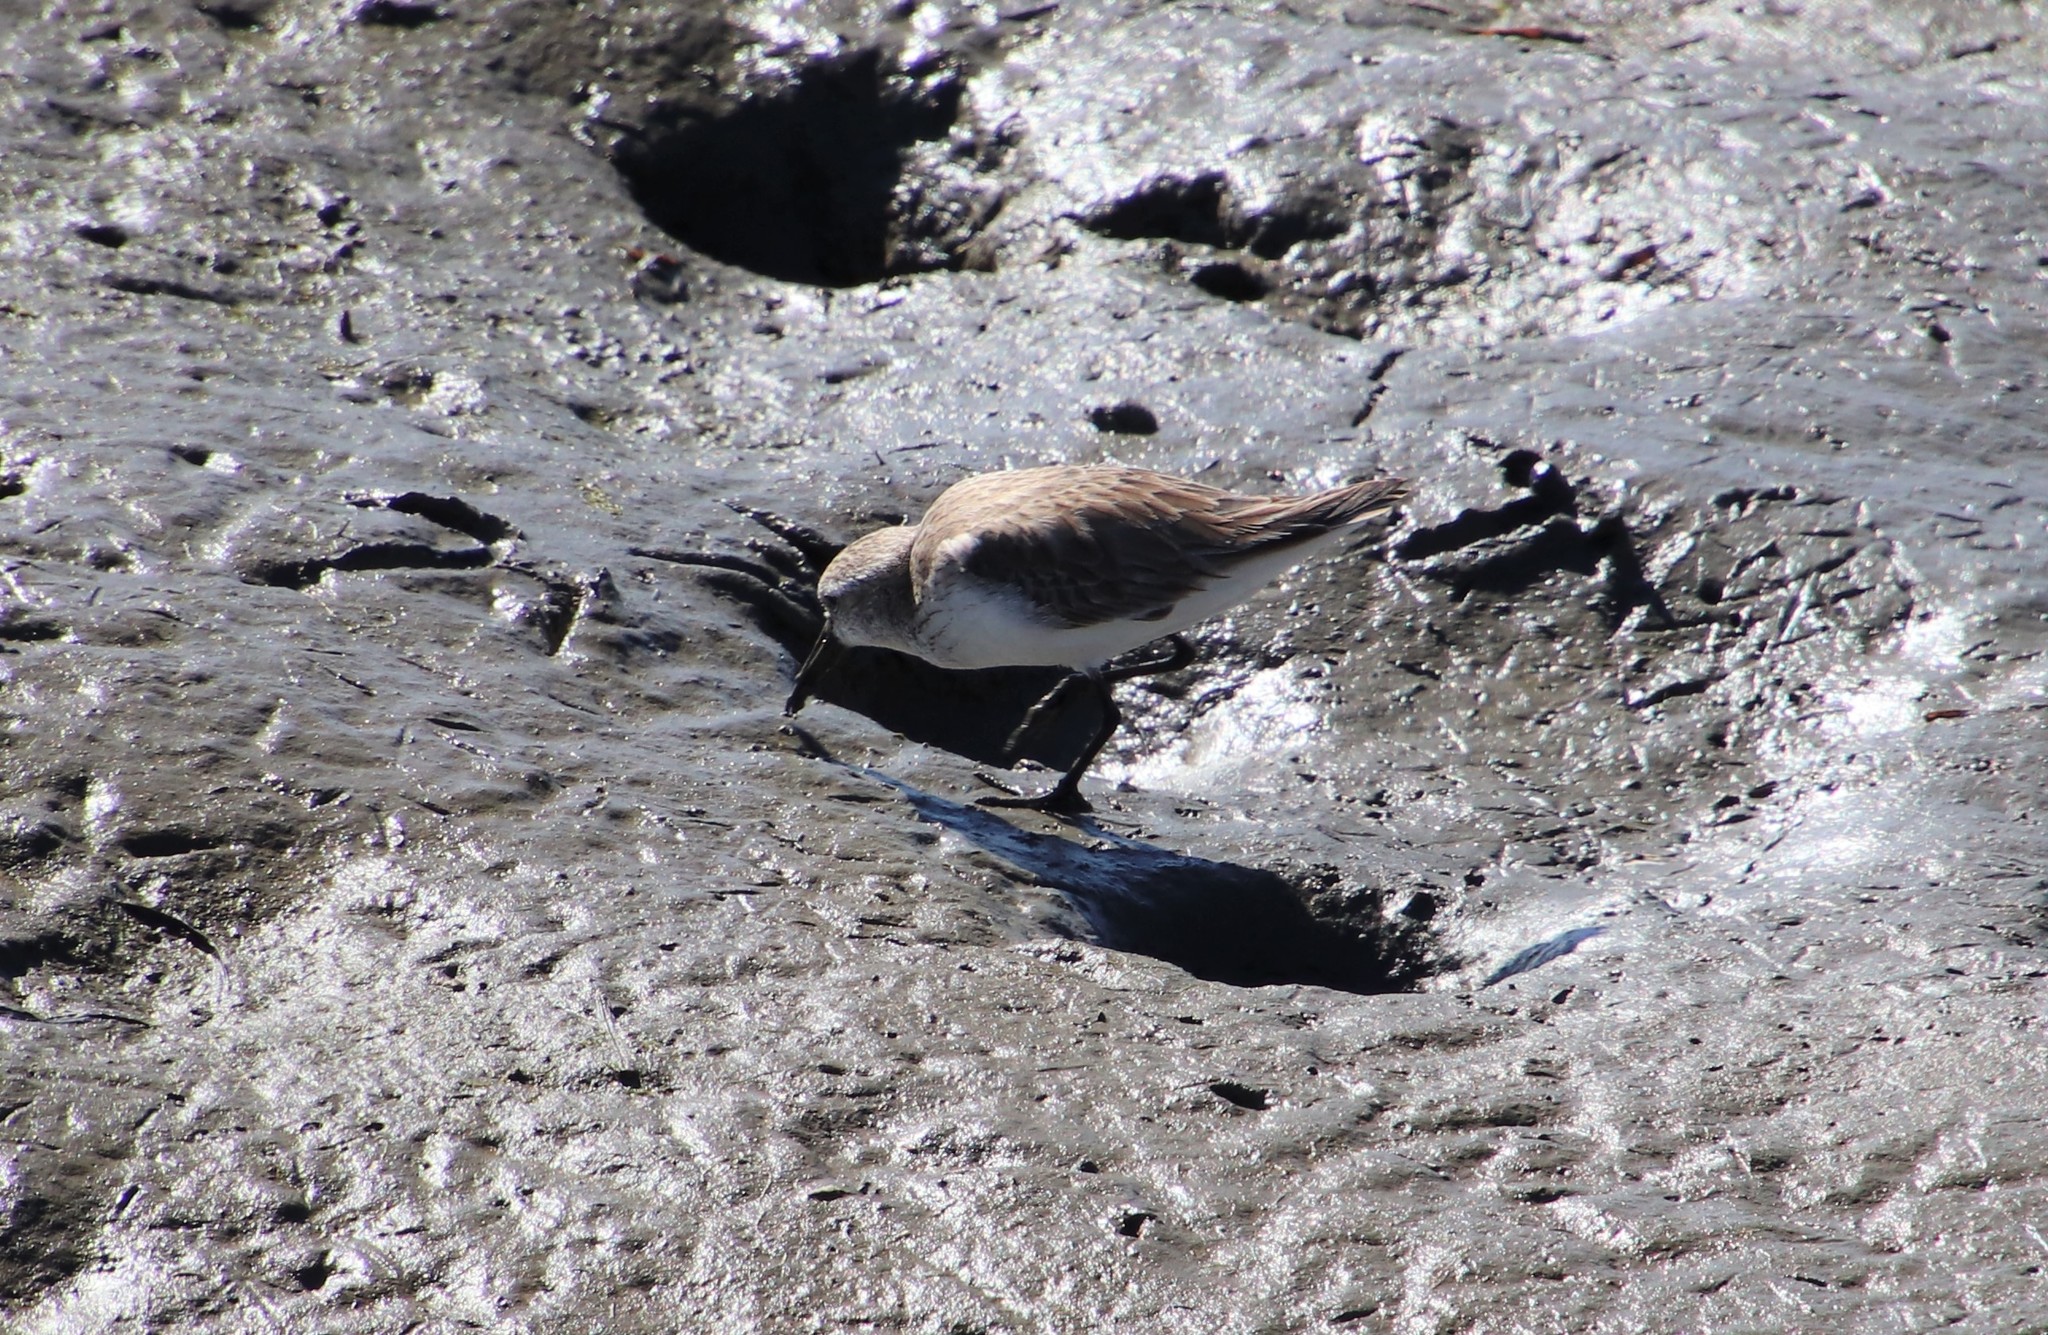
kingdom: Animalia
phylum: Chordata
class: Aves
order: Charadriiformes
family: Scolopacidae
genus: Calidris
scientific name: Calidris mauri
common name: Western sandpiper
